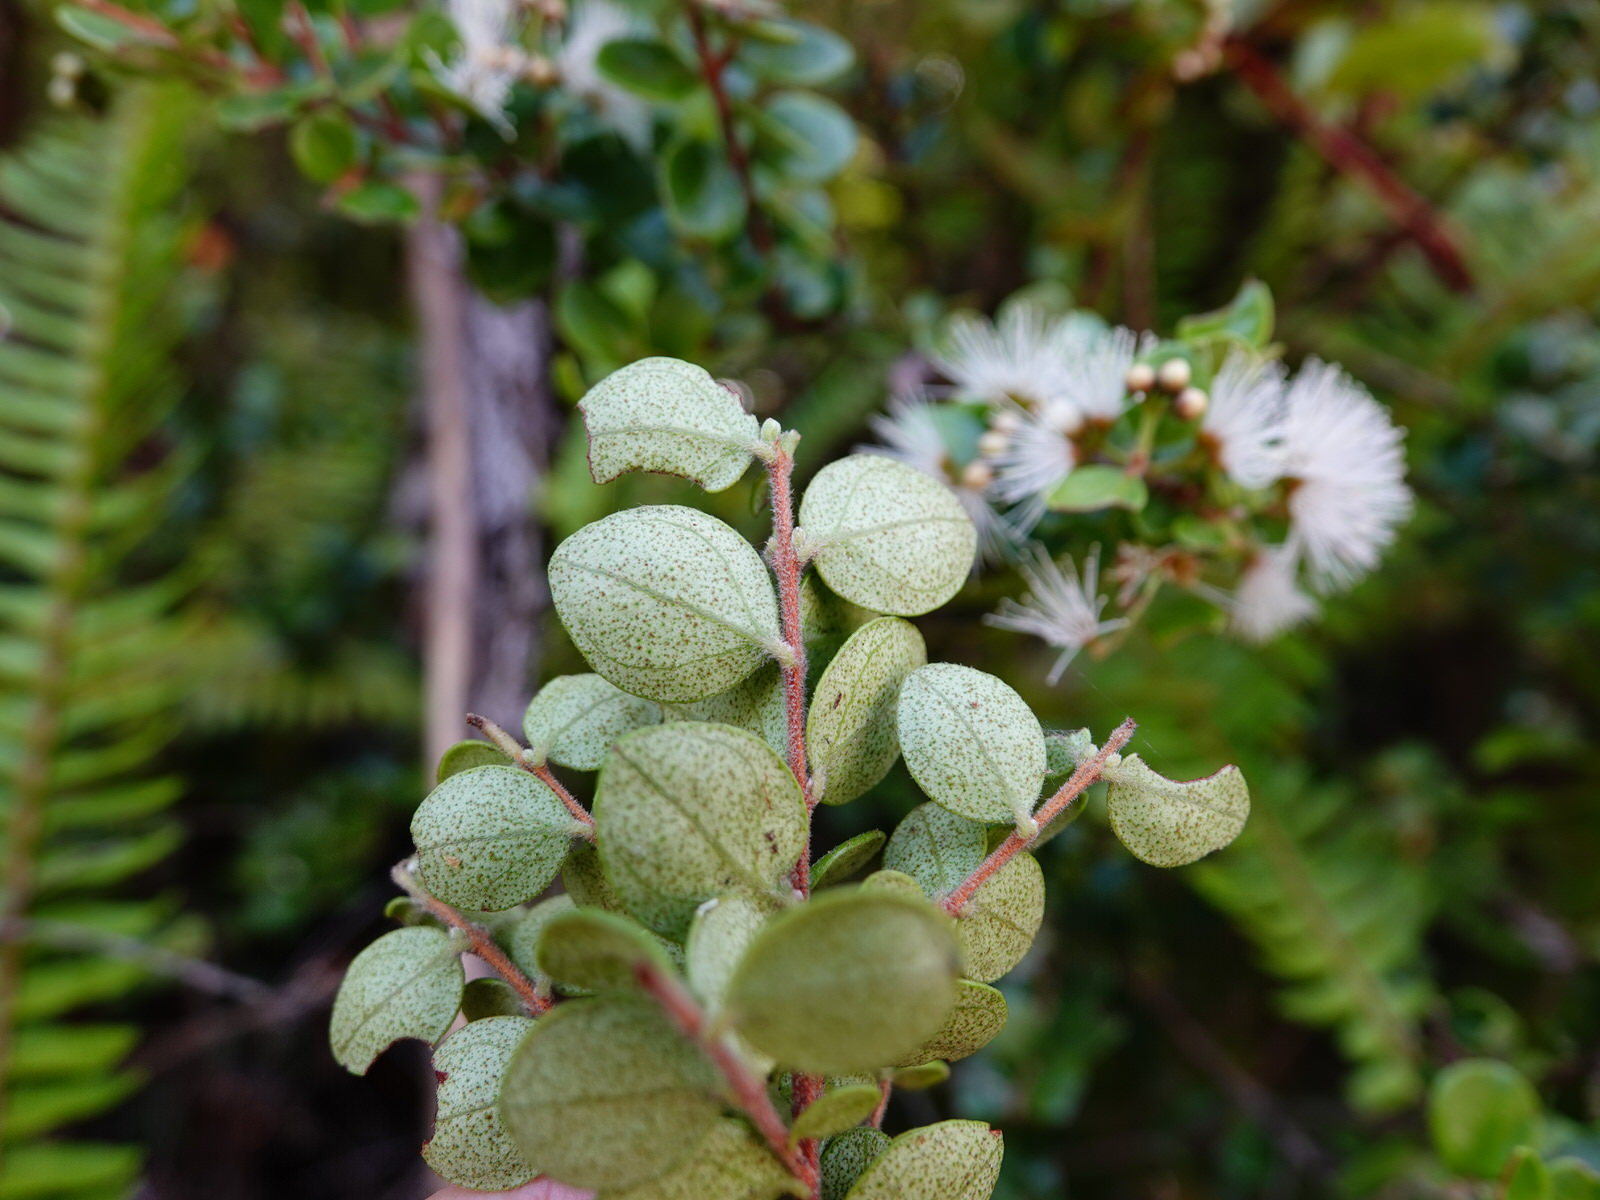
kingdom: Plantae
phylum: Tracheophyta
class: Magnoliopsida
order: Myrtales
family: Myrtaceae
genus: Metrosideros
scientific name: Metrosideros perforata
